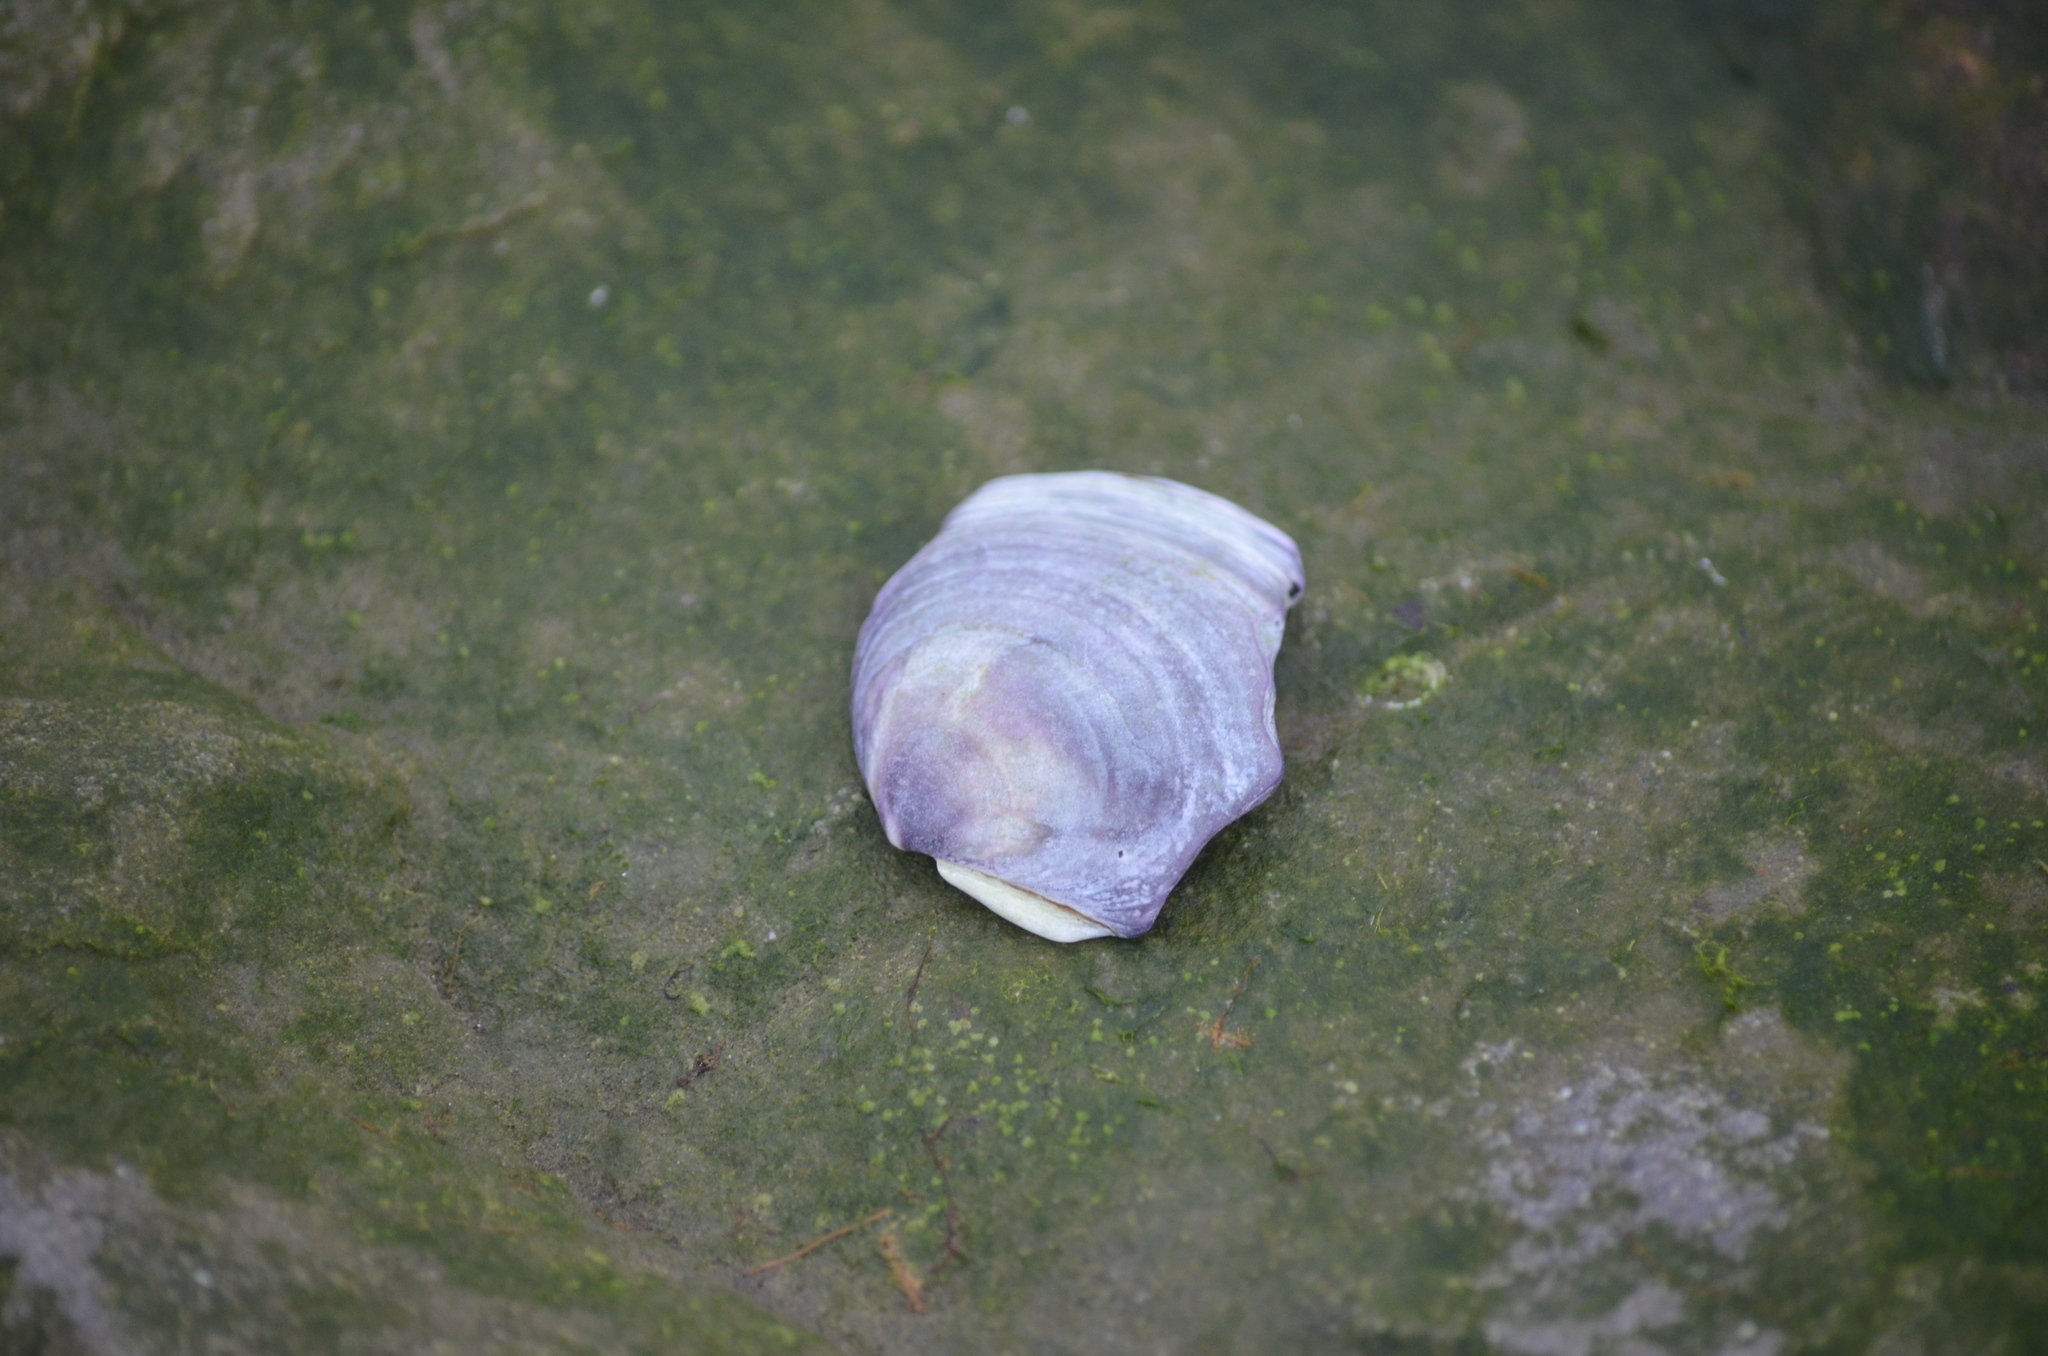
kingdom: Animalia
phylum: Mollusca
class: Bivalvia
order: Cardiida
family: Psammobiidae
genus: Nuttallia
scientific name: Nuttallia obscurata
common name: Purple mahogany-clam
